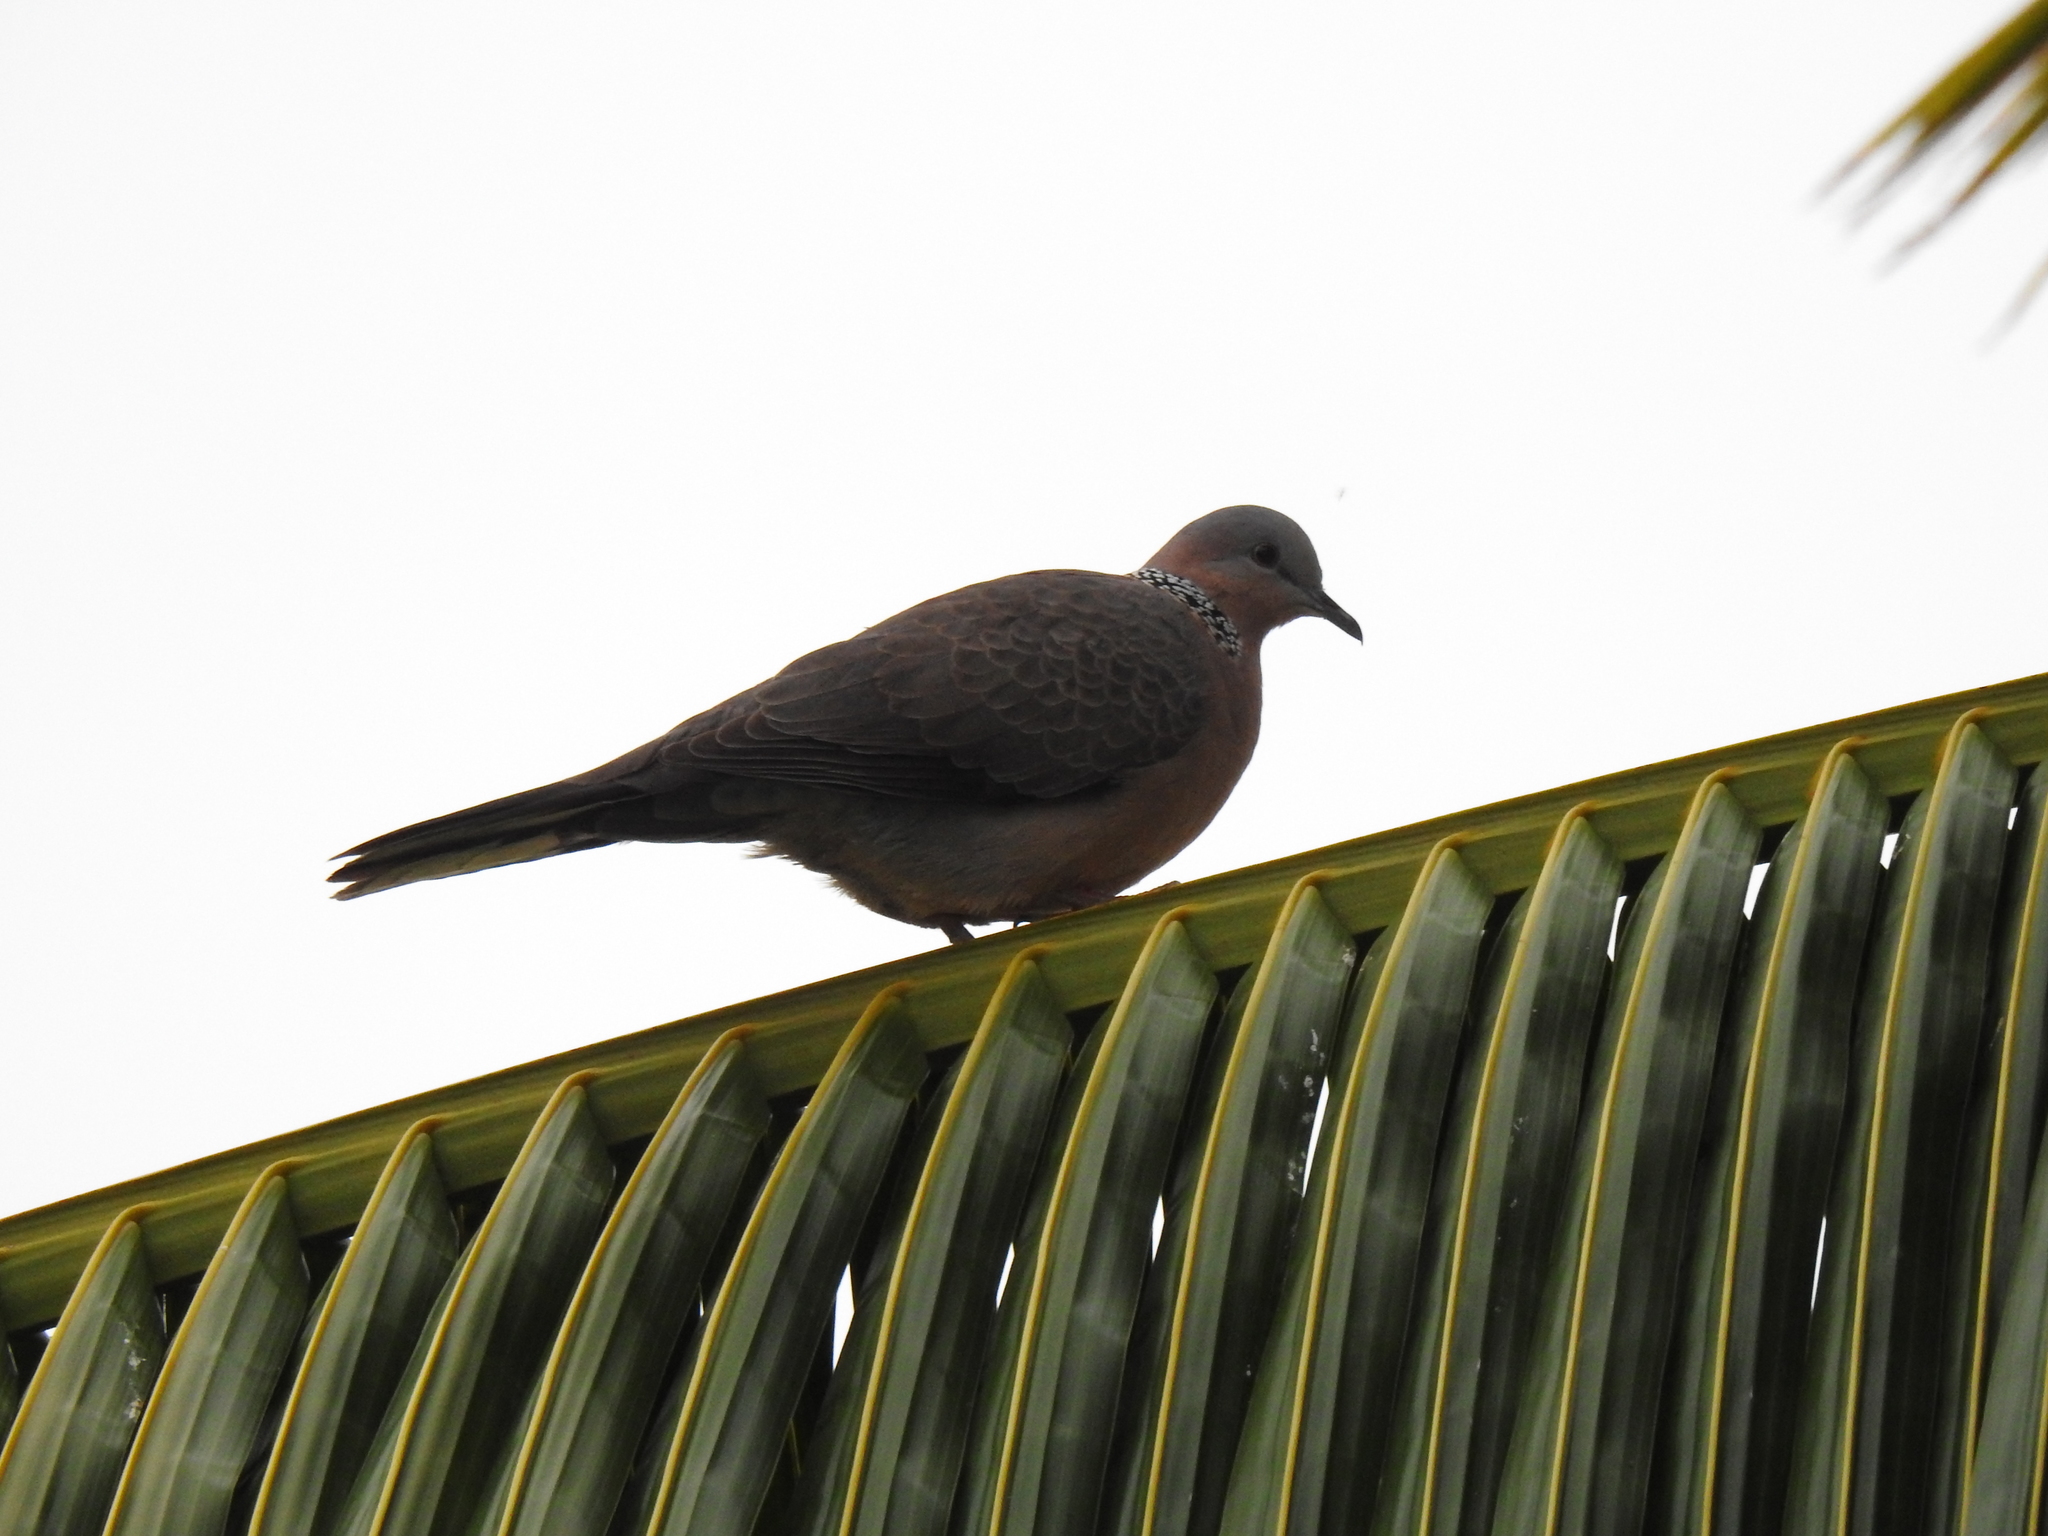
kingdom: Animalia
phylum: Chordata
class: Aves
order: Columbiformes
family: Columbidae
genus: Spilopelia
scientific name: Spilopelia chinensis
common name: Spotted dove
